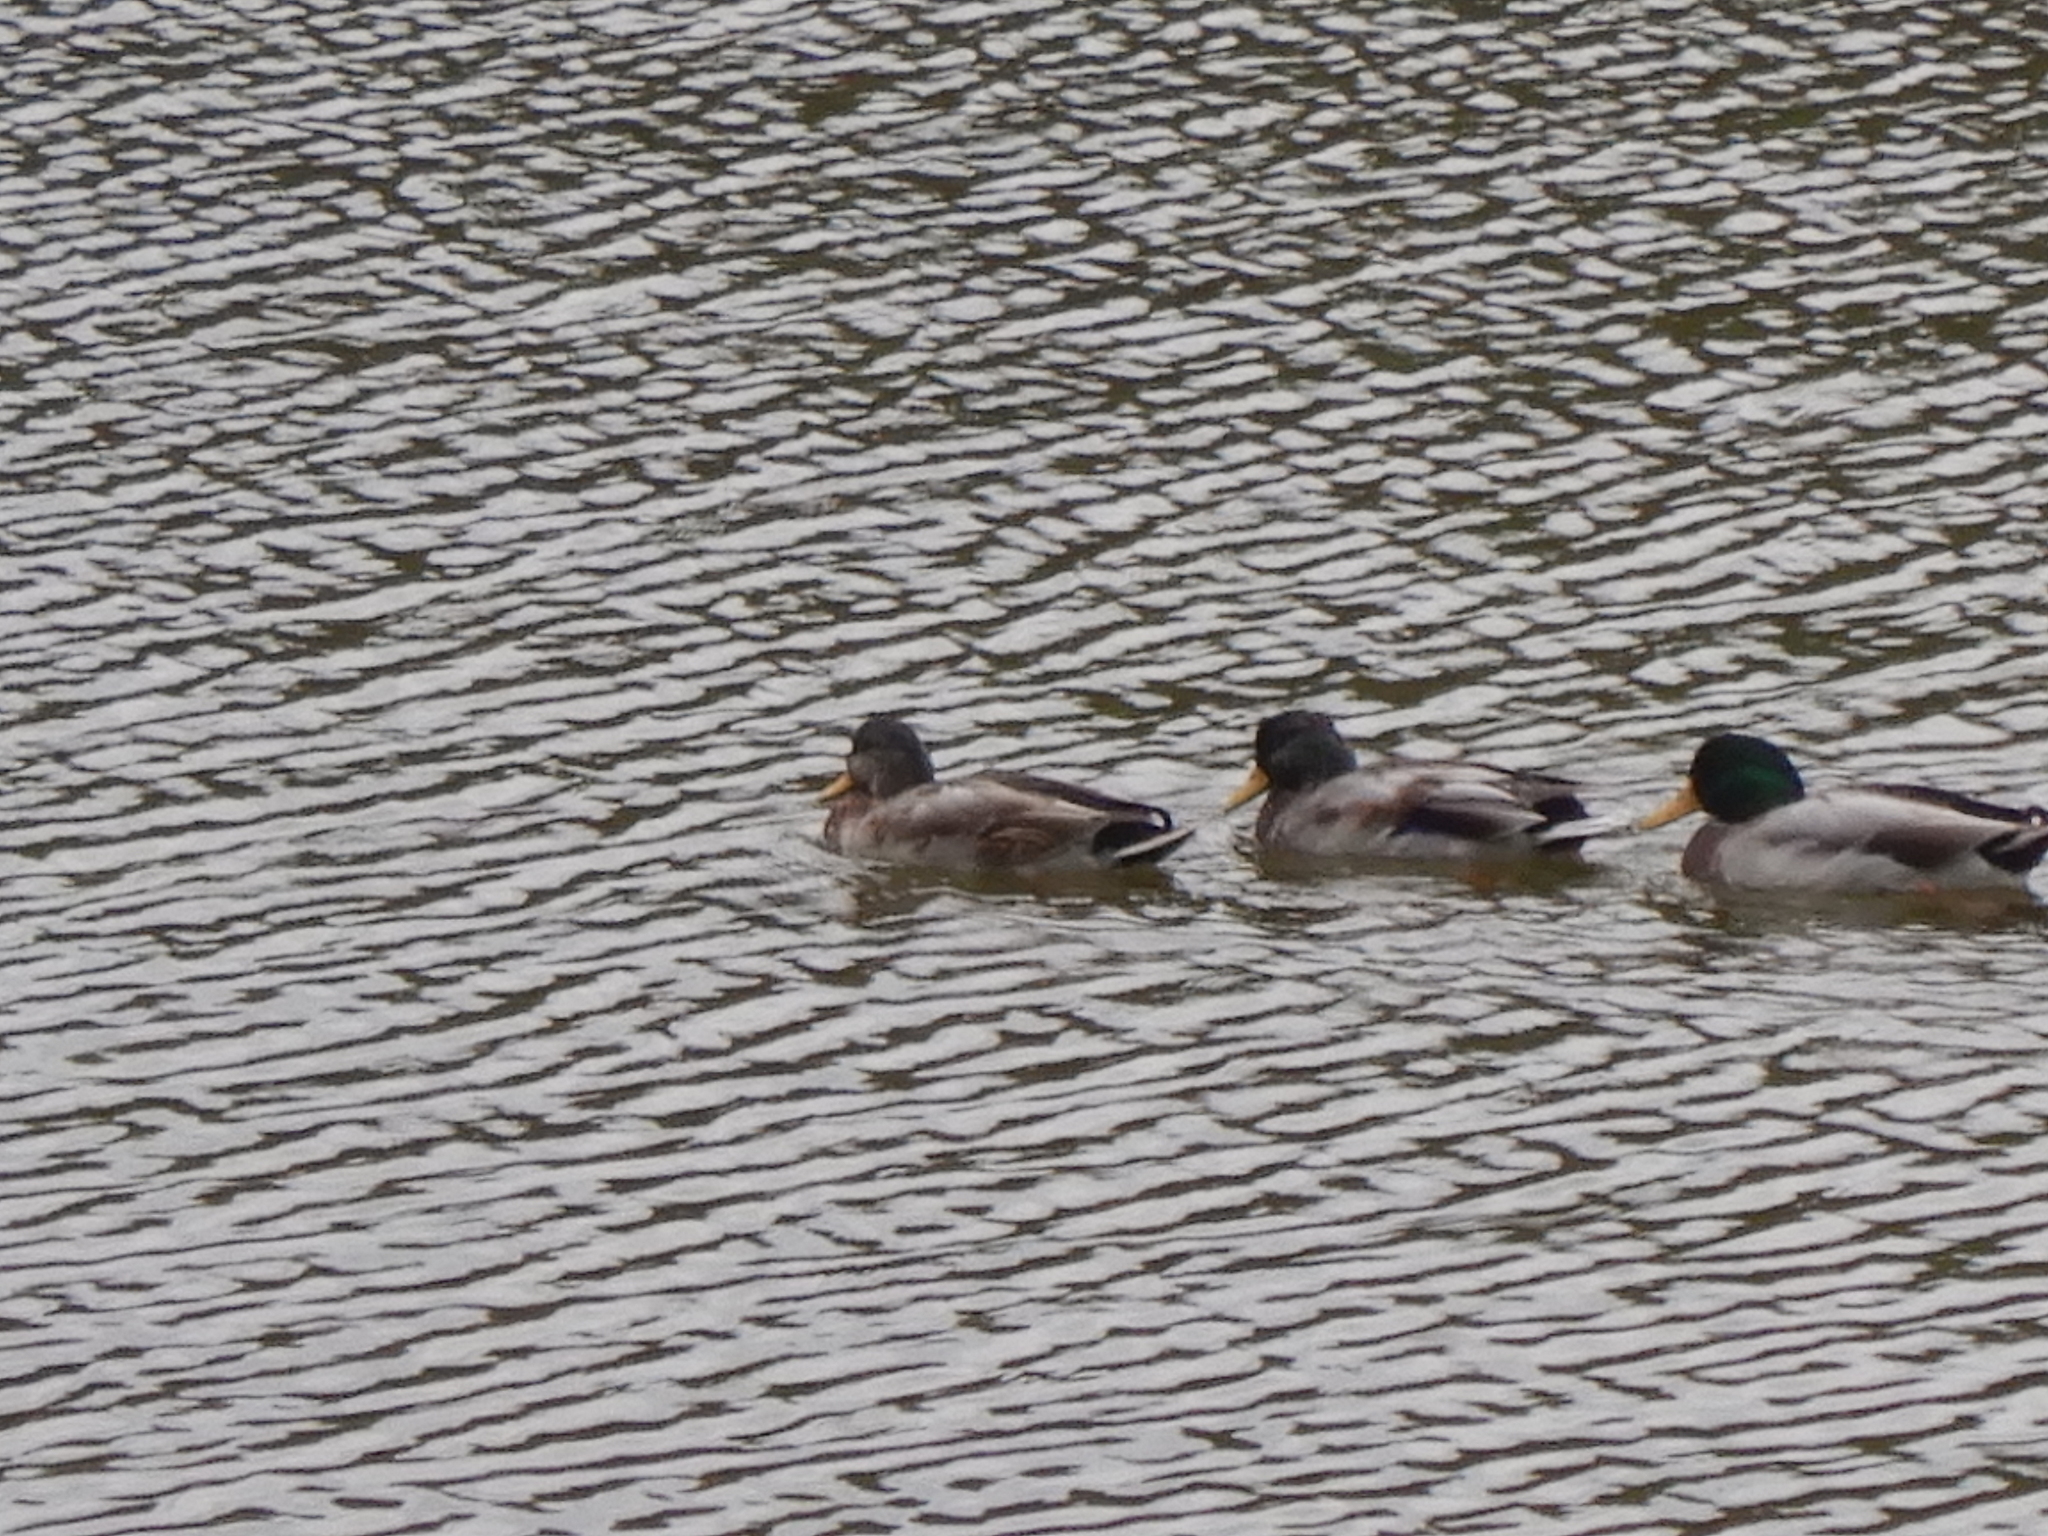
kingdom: Animalia
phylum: Chordata
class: Aves
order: Anseriformes
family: Anatidae
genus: Anas
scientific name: Anas platyrhynchos
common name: Mallard
